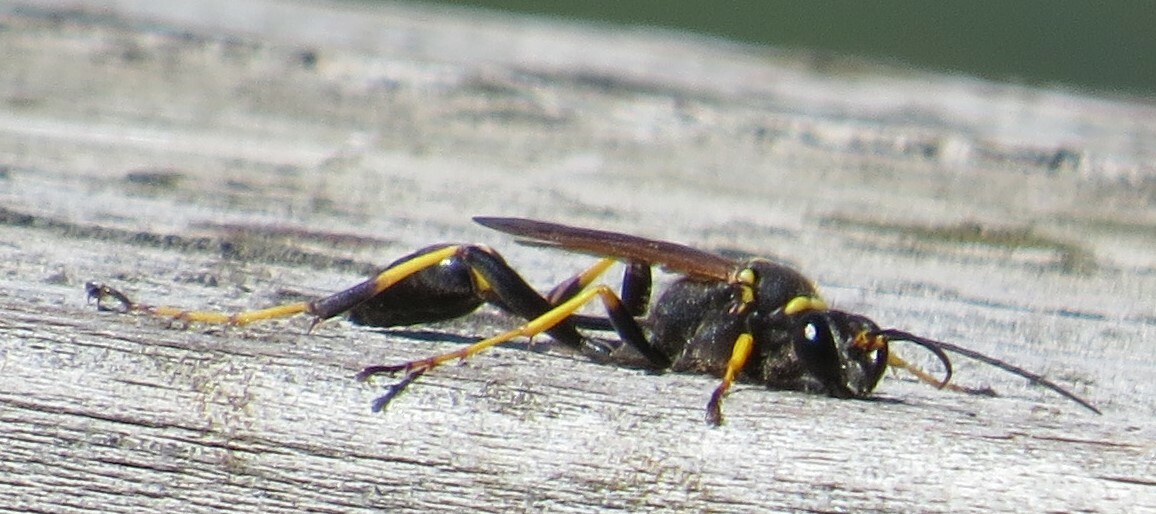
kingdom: Animalia
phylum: Arthropoda
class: Insecta
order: Hymenoptera
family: Sphecidae
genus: Sceliphron
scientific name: Sceliphron caementarium
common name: Mud dauber
